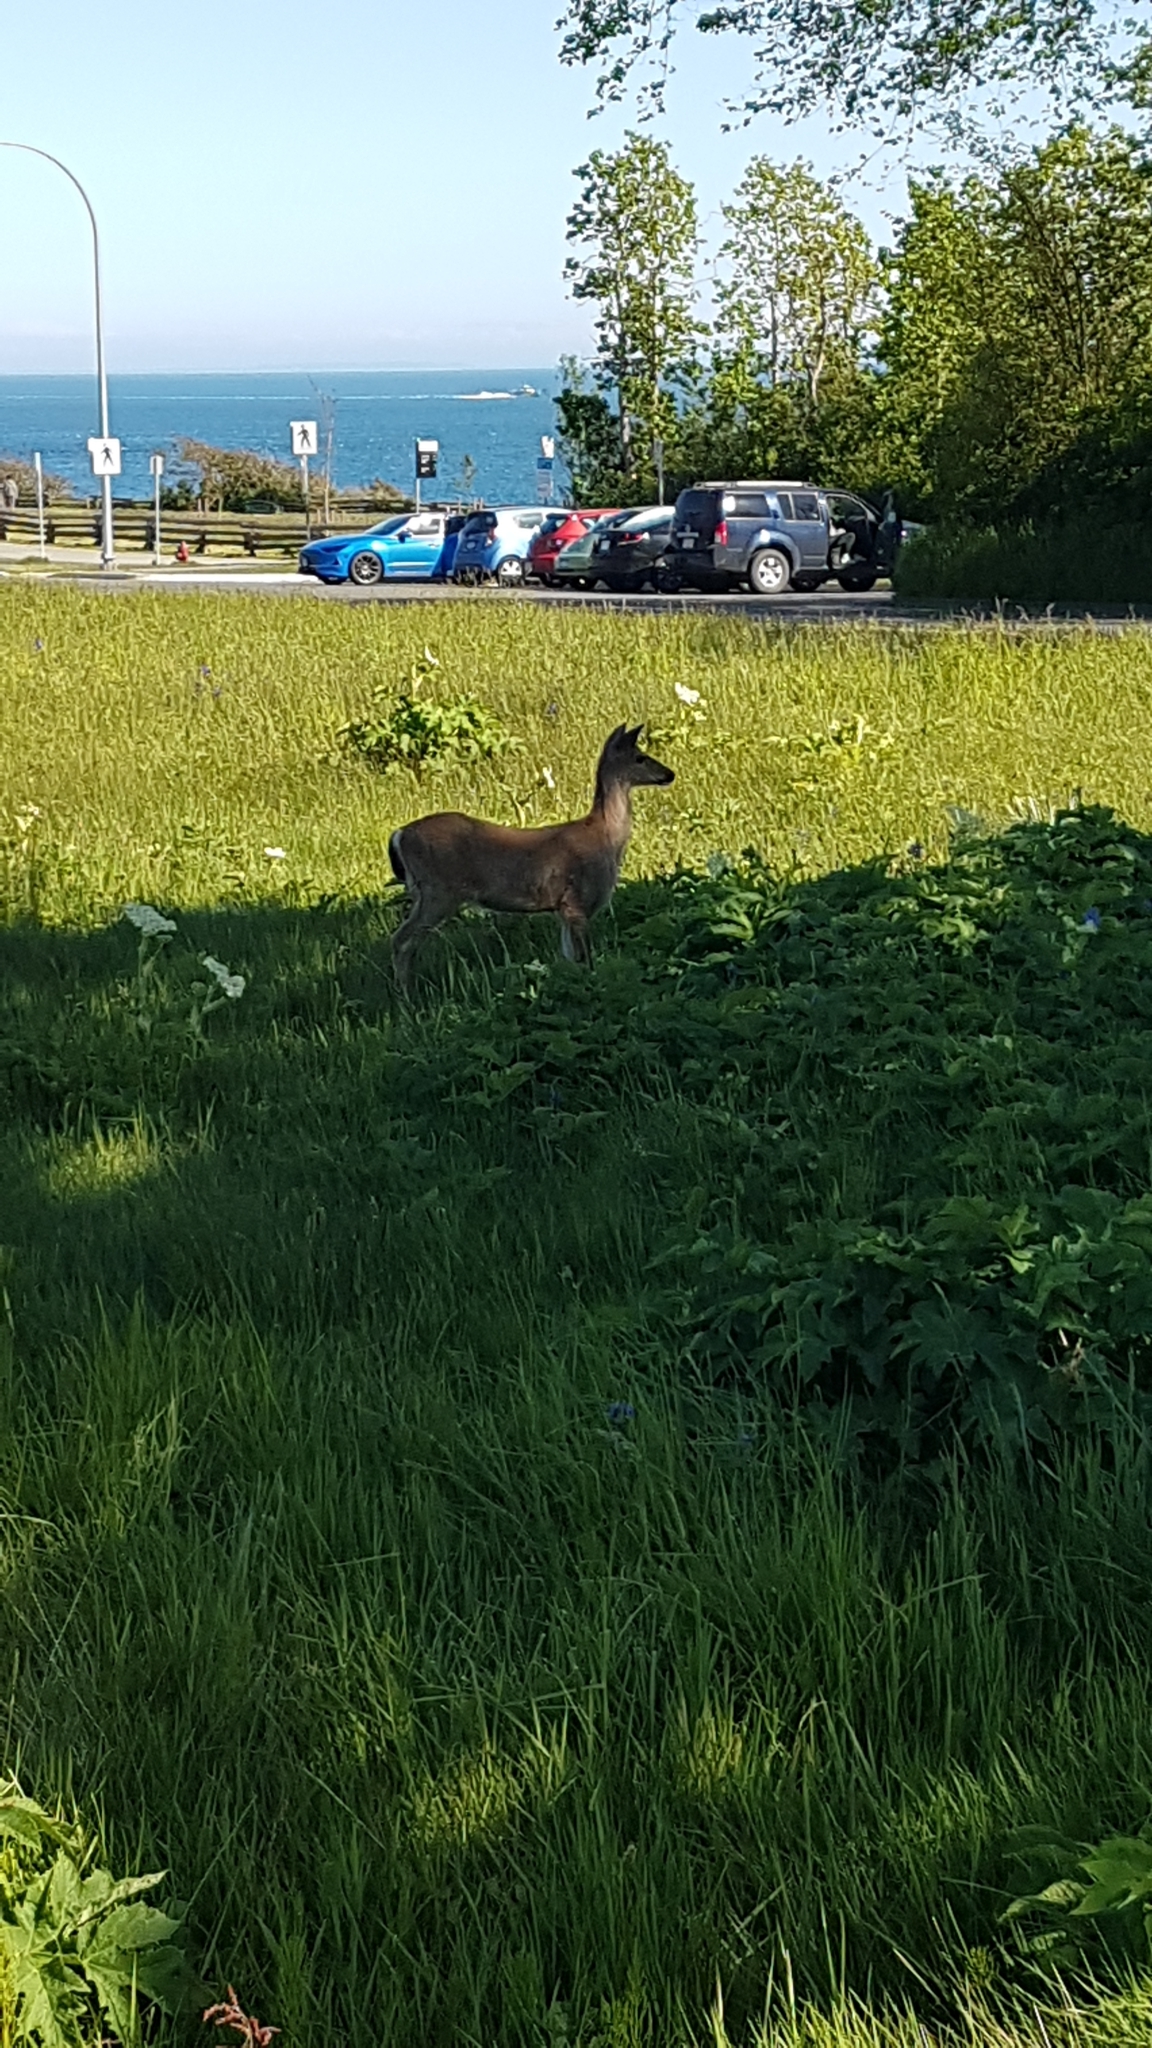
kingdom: Animalia
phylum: Chordata
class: Mammalia
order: Artiodactyla
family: Cervidae
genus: Odocoileus
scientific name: Odocoileus hemionus
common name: Mule deer
